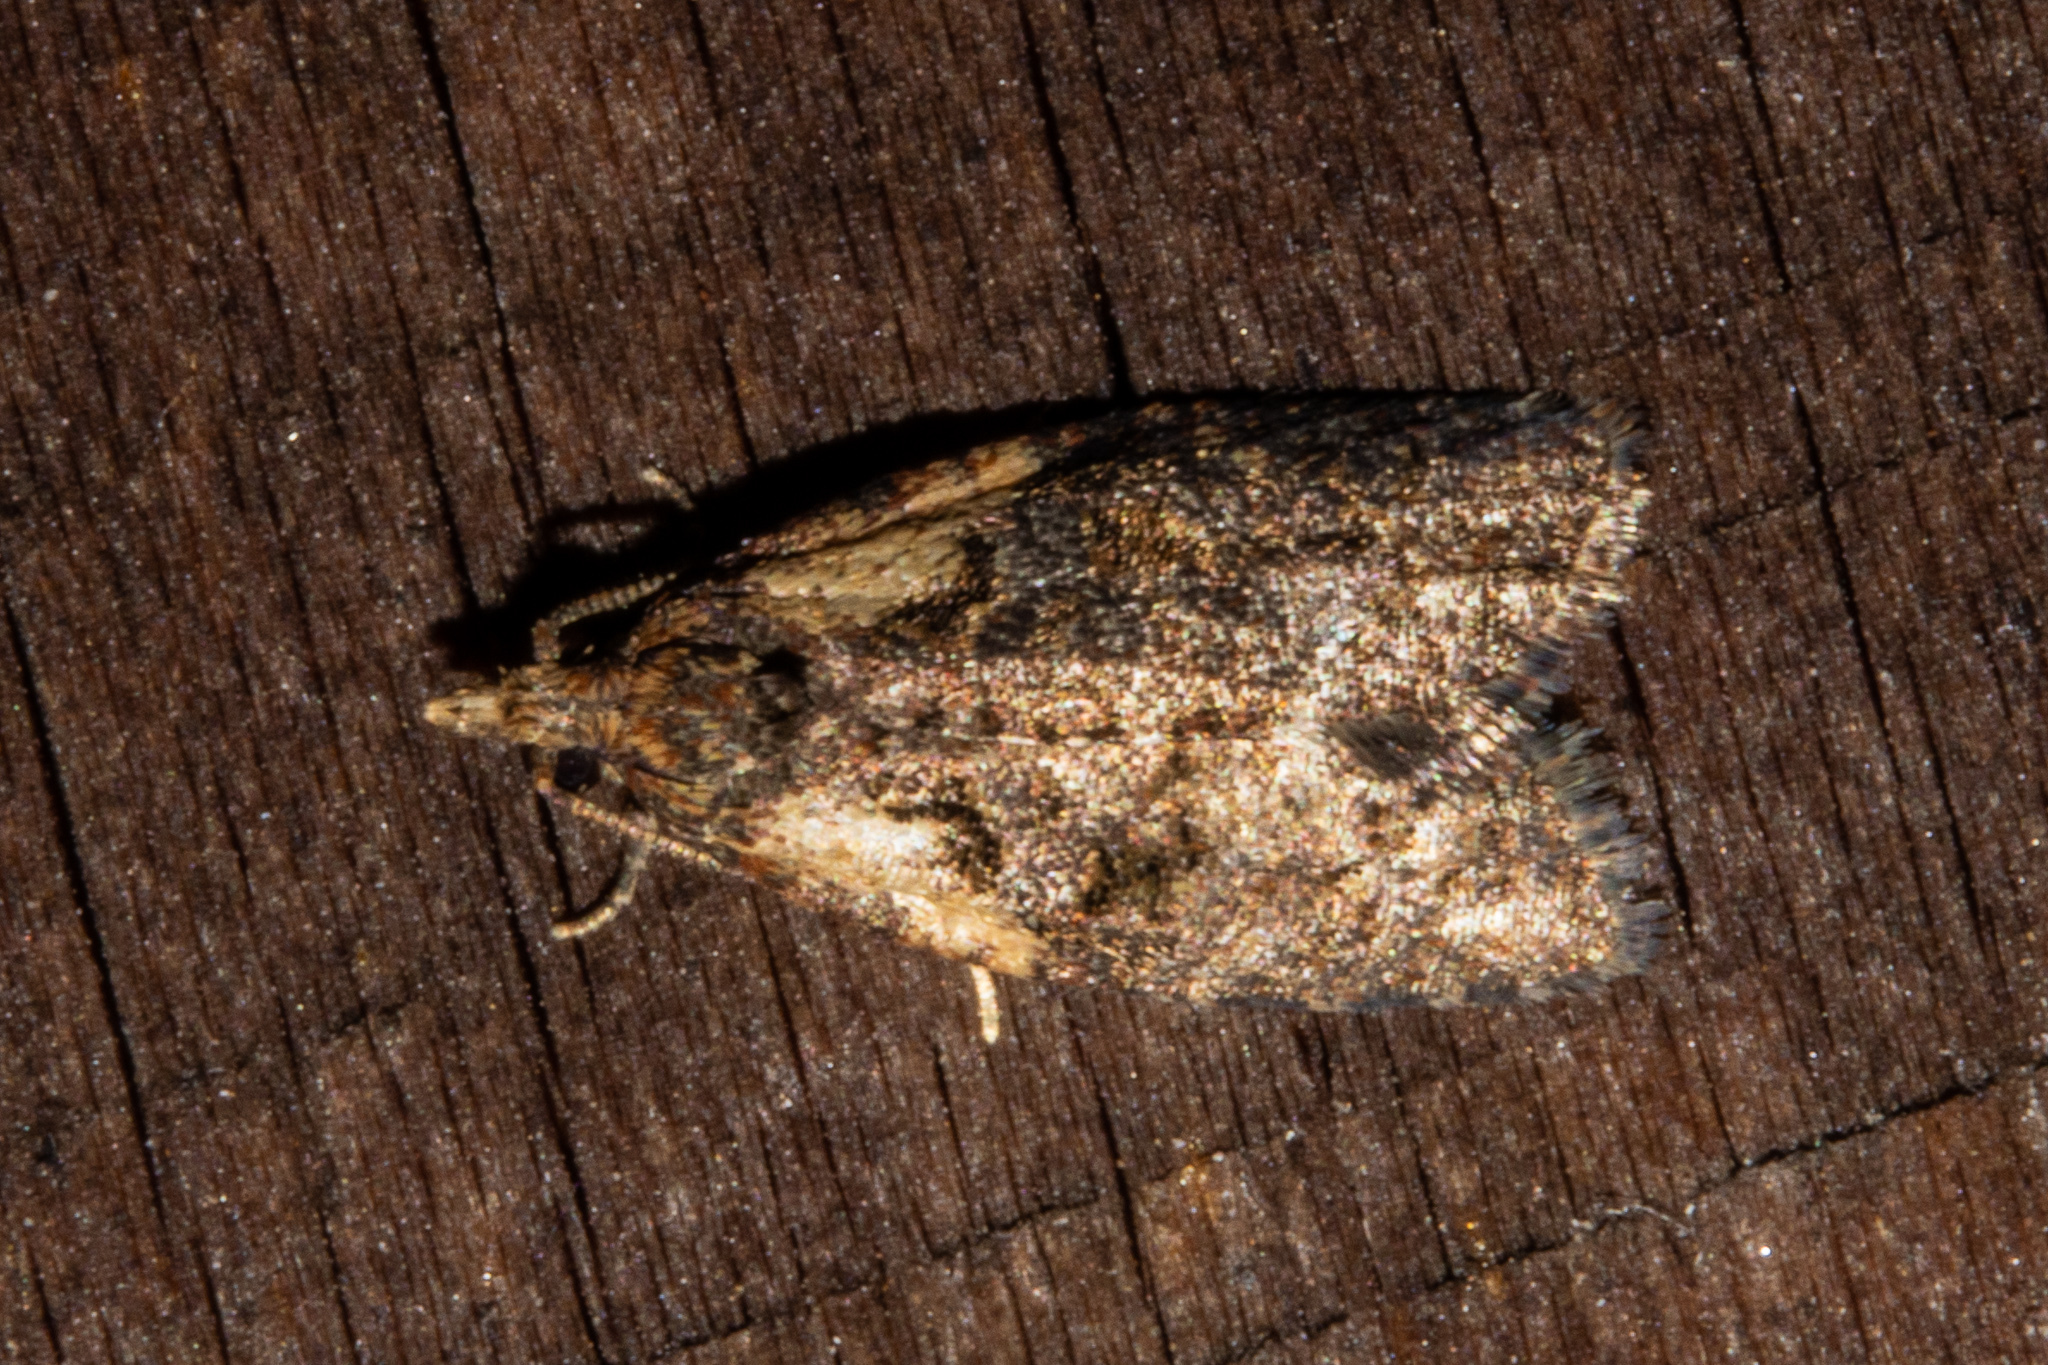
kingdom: Animalia
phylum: Arthropoda
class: Insecta
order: Lepidoptera
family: Tortricidae
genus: Capua
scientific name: Capua intractana
